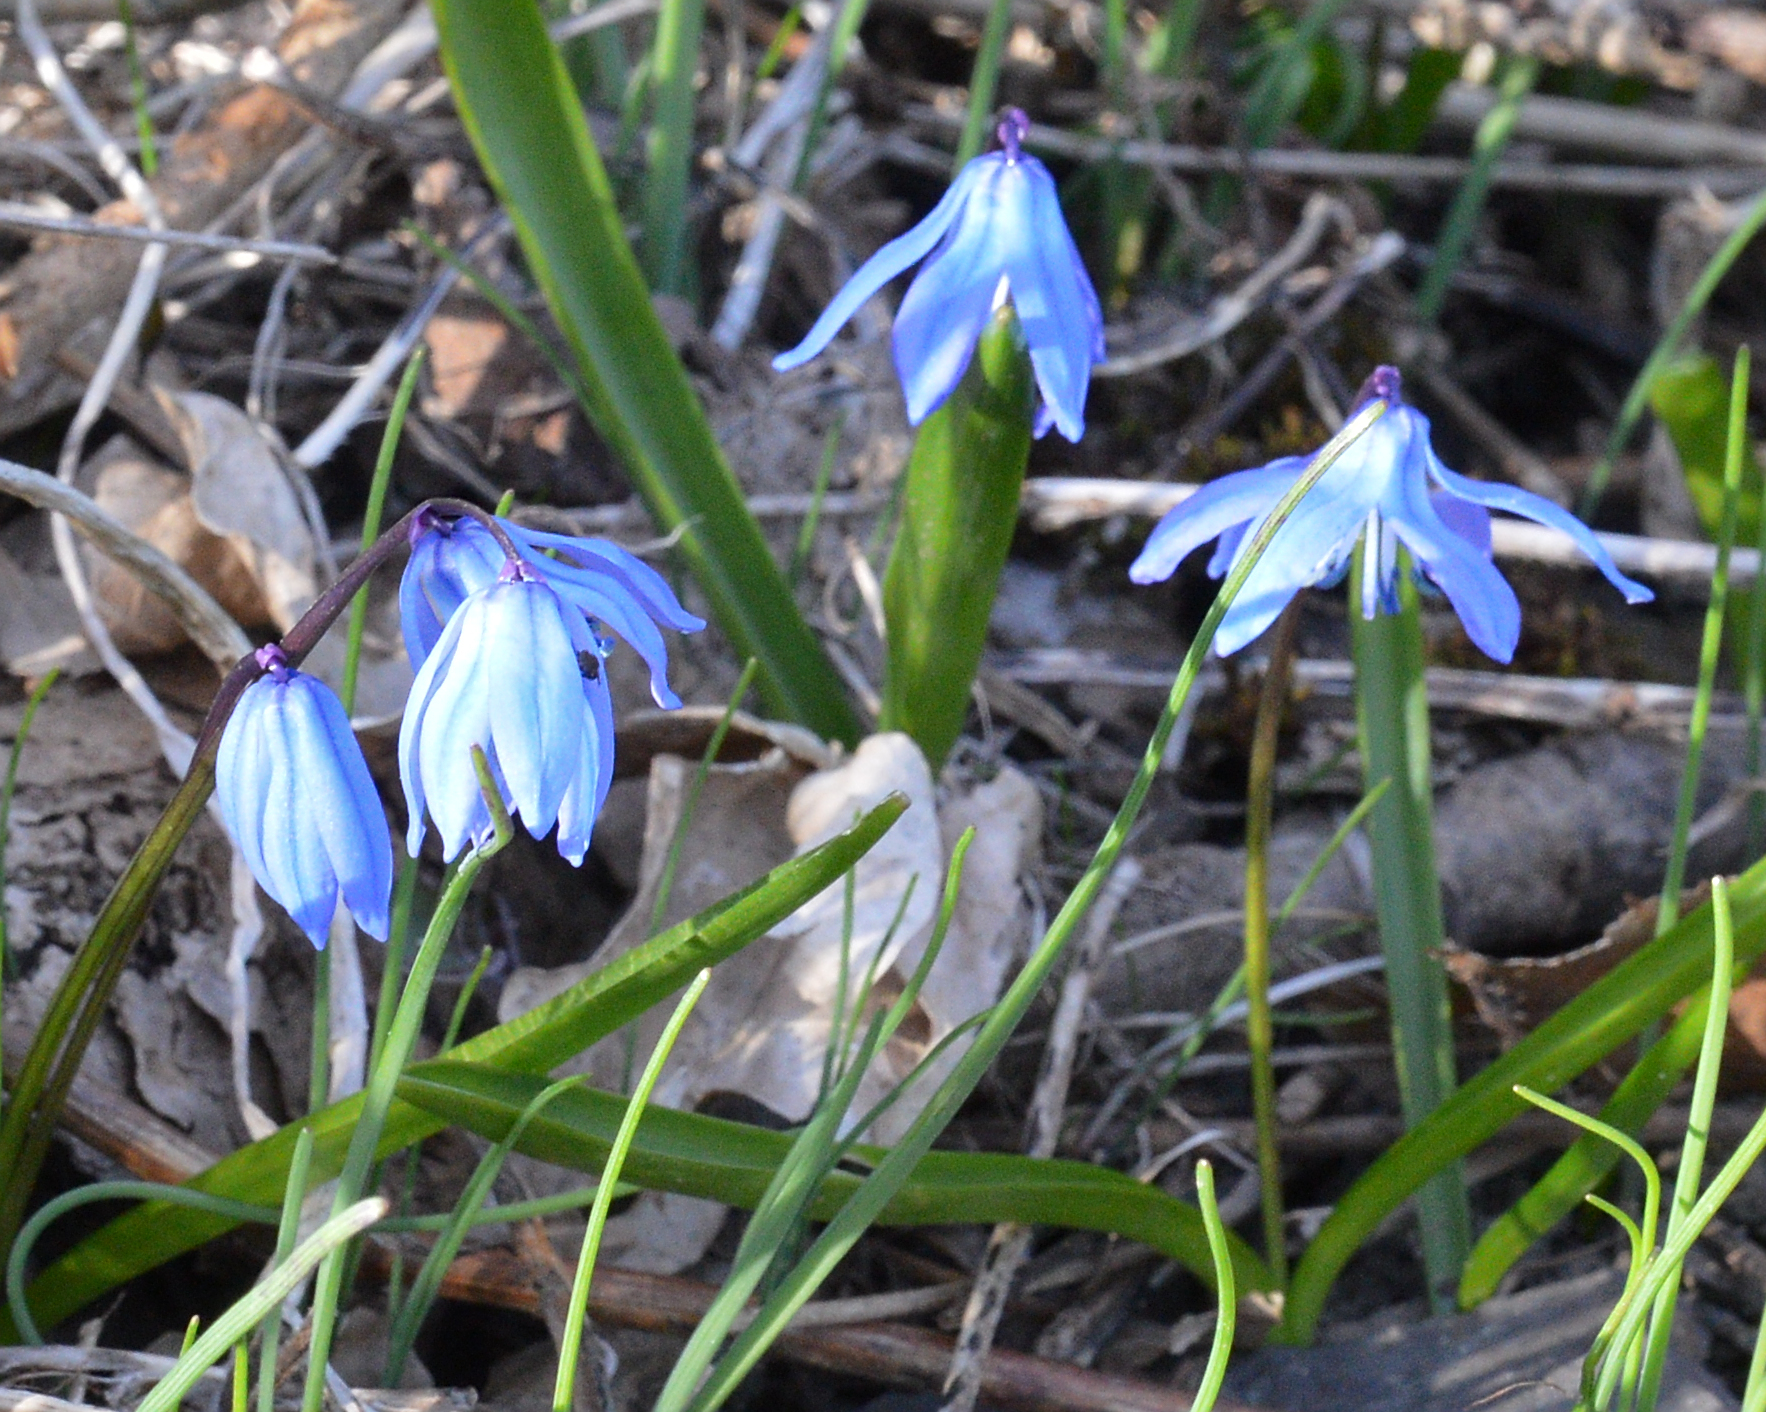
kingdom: Plantae
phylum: Tracheophyta
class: Liliopsida
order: Asparagales
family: Asparagaceae
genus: Scilla
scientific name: Scilla siberica
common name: Siberian squill
